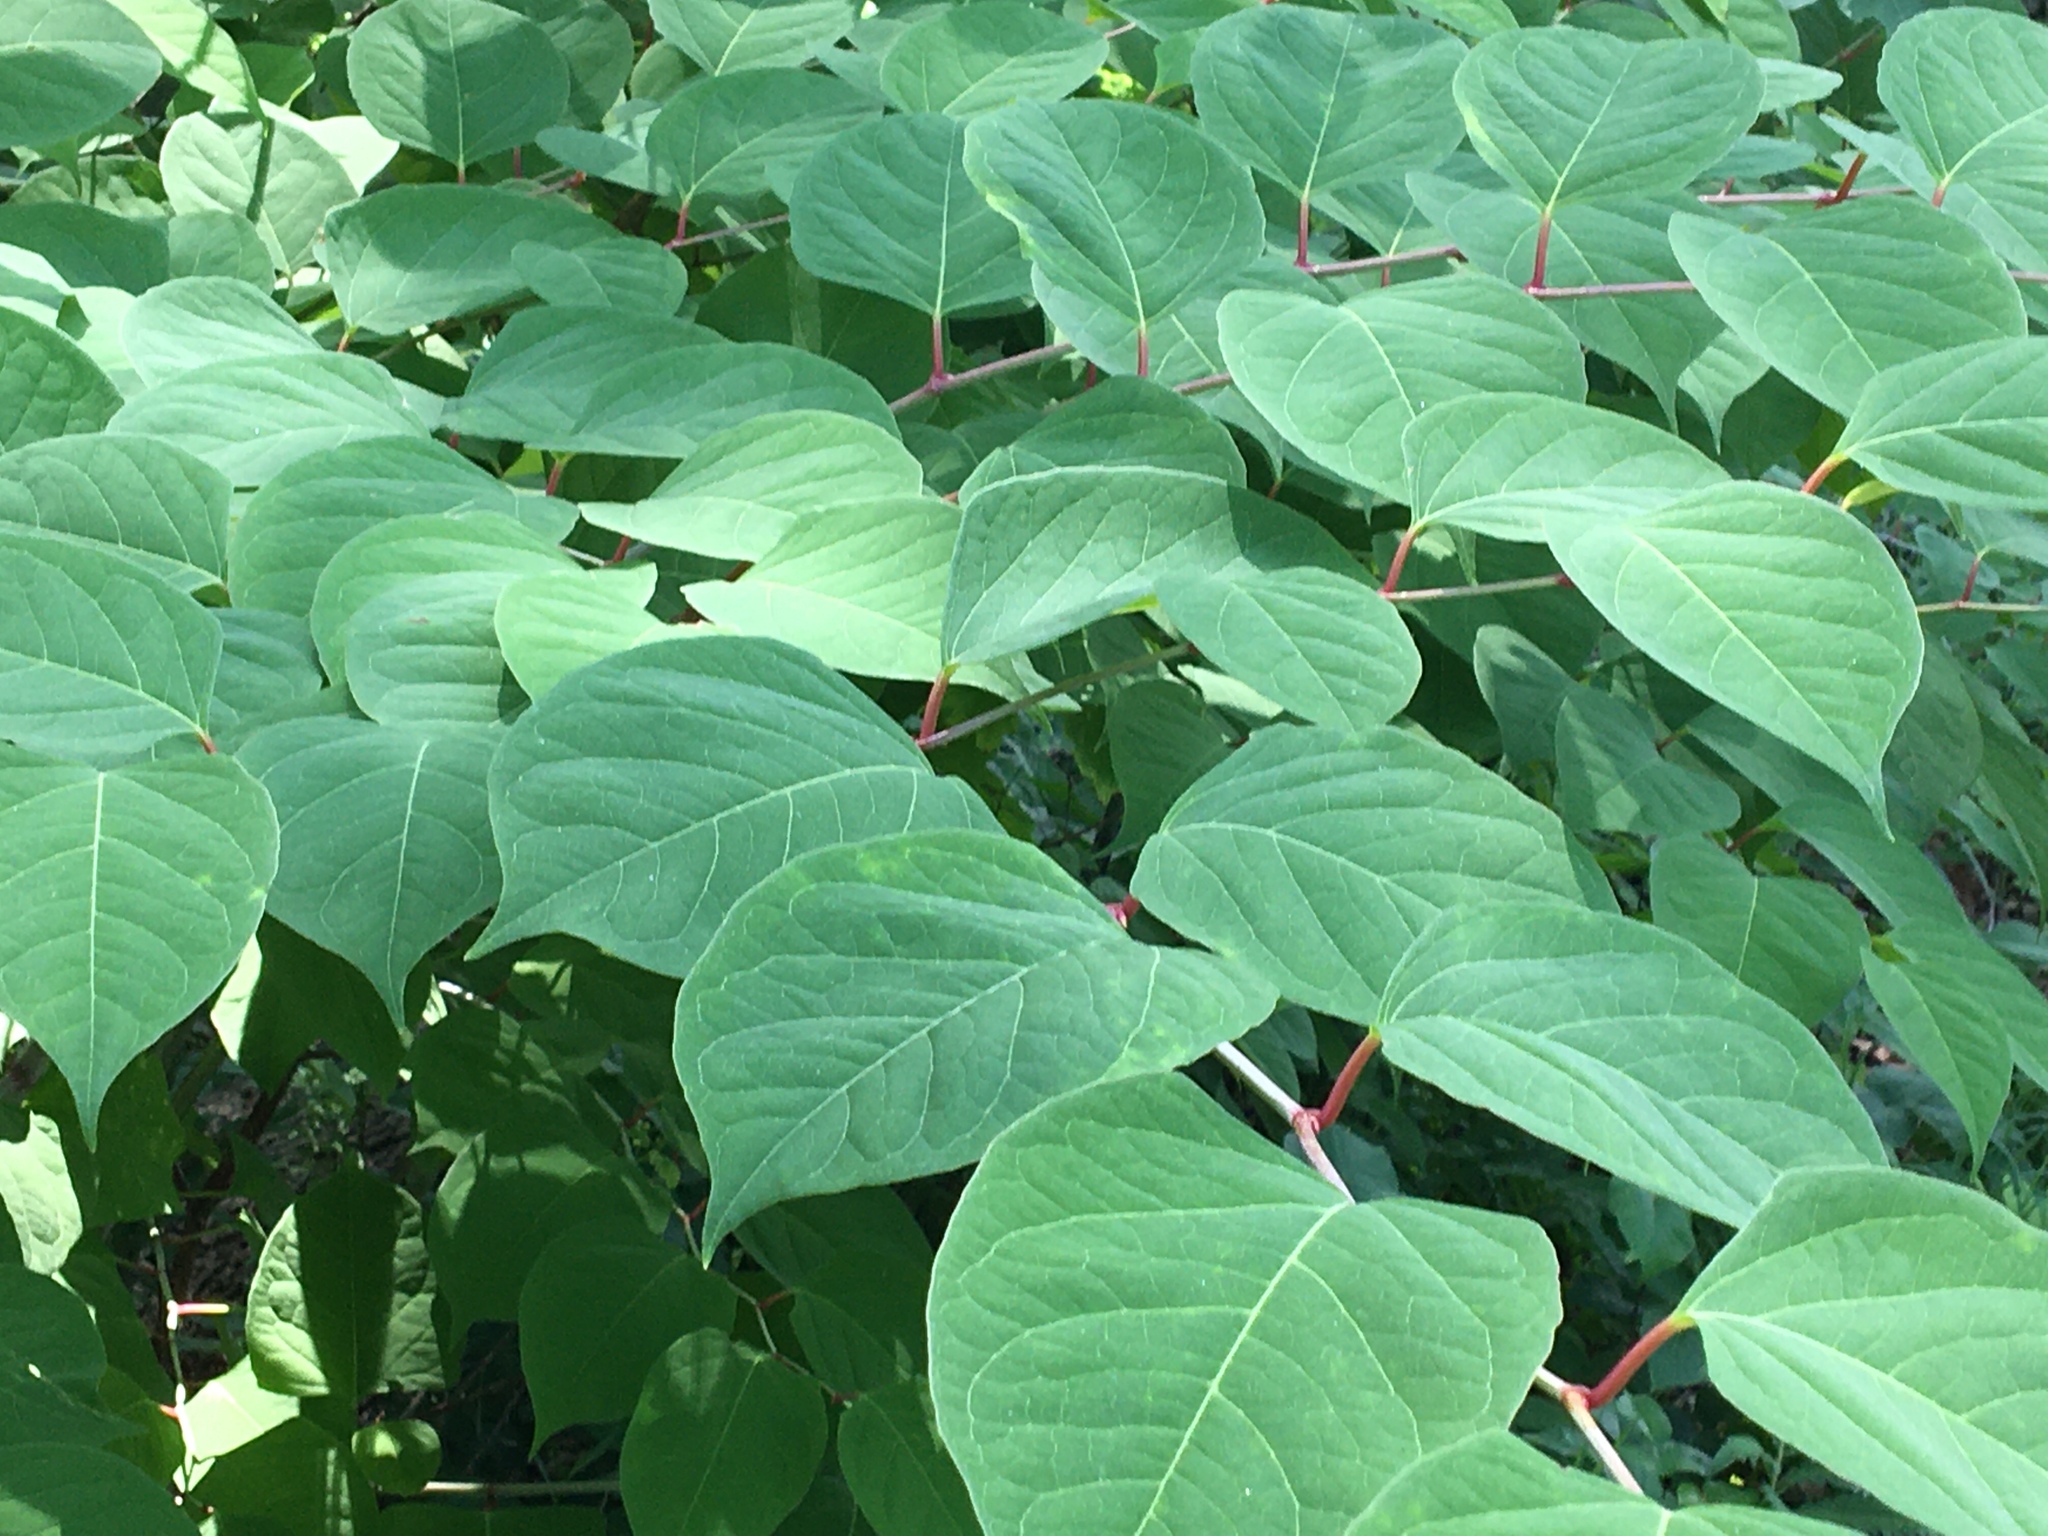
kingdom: Plantae
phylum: Tracheophyta
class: Magnoliopsida
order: Caryophyllales
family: Polygonaceae
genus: Reynoutria
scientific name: Reynoutria japonica
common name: Japanese knotweed
